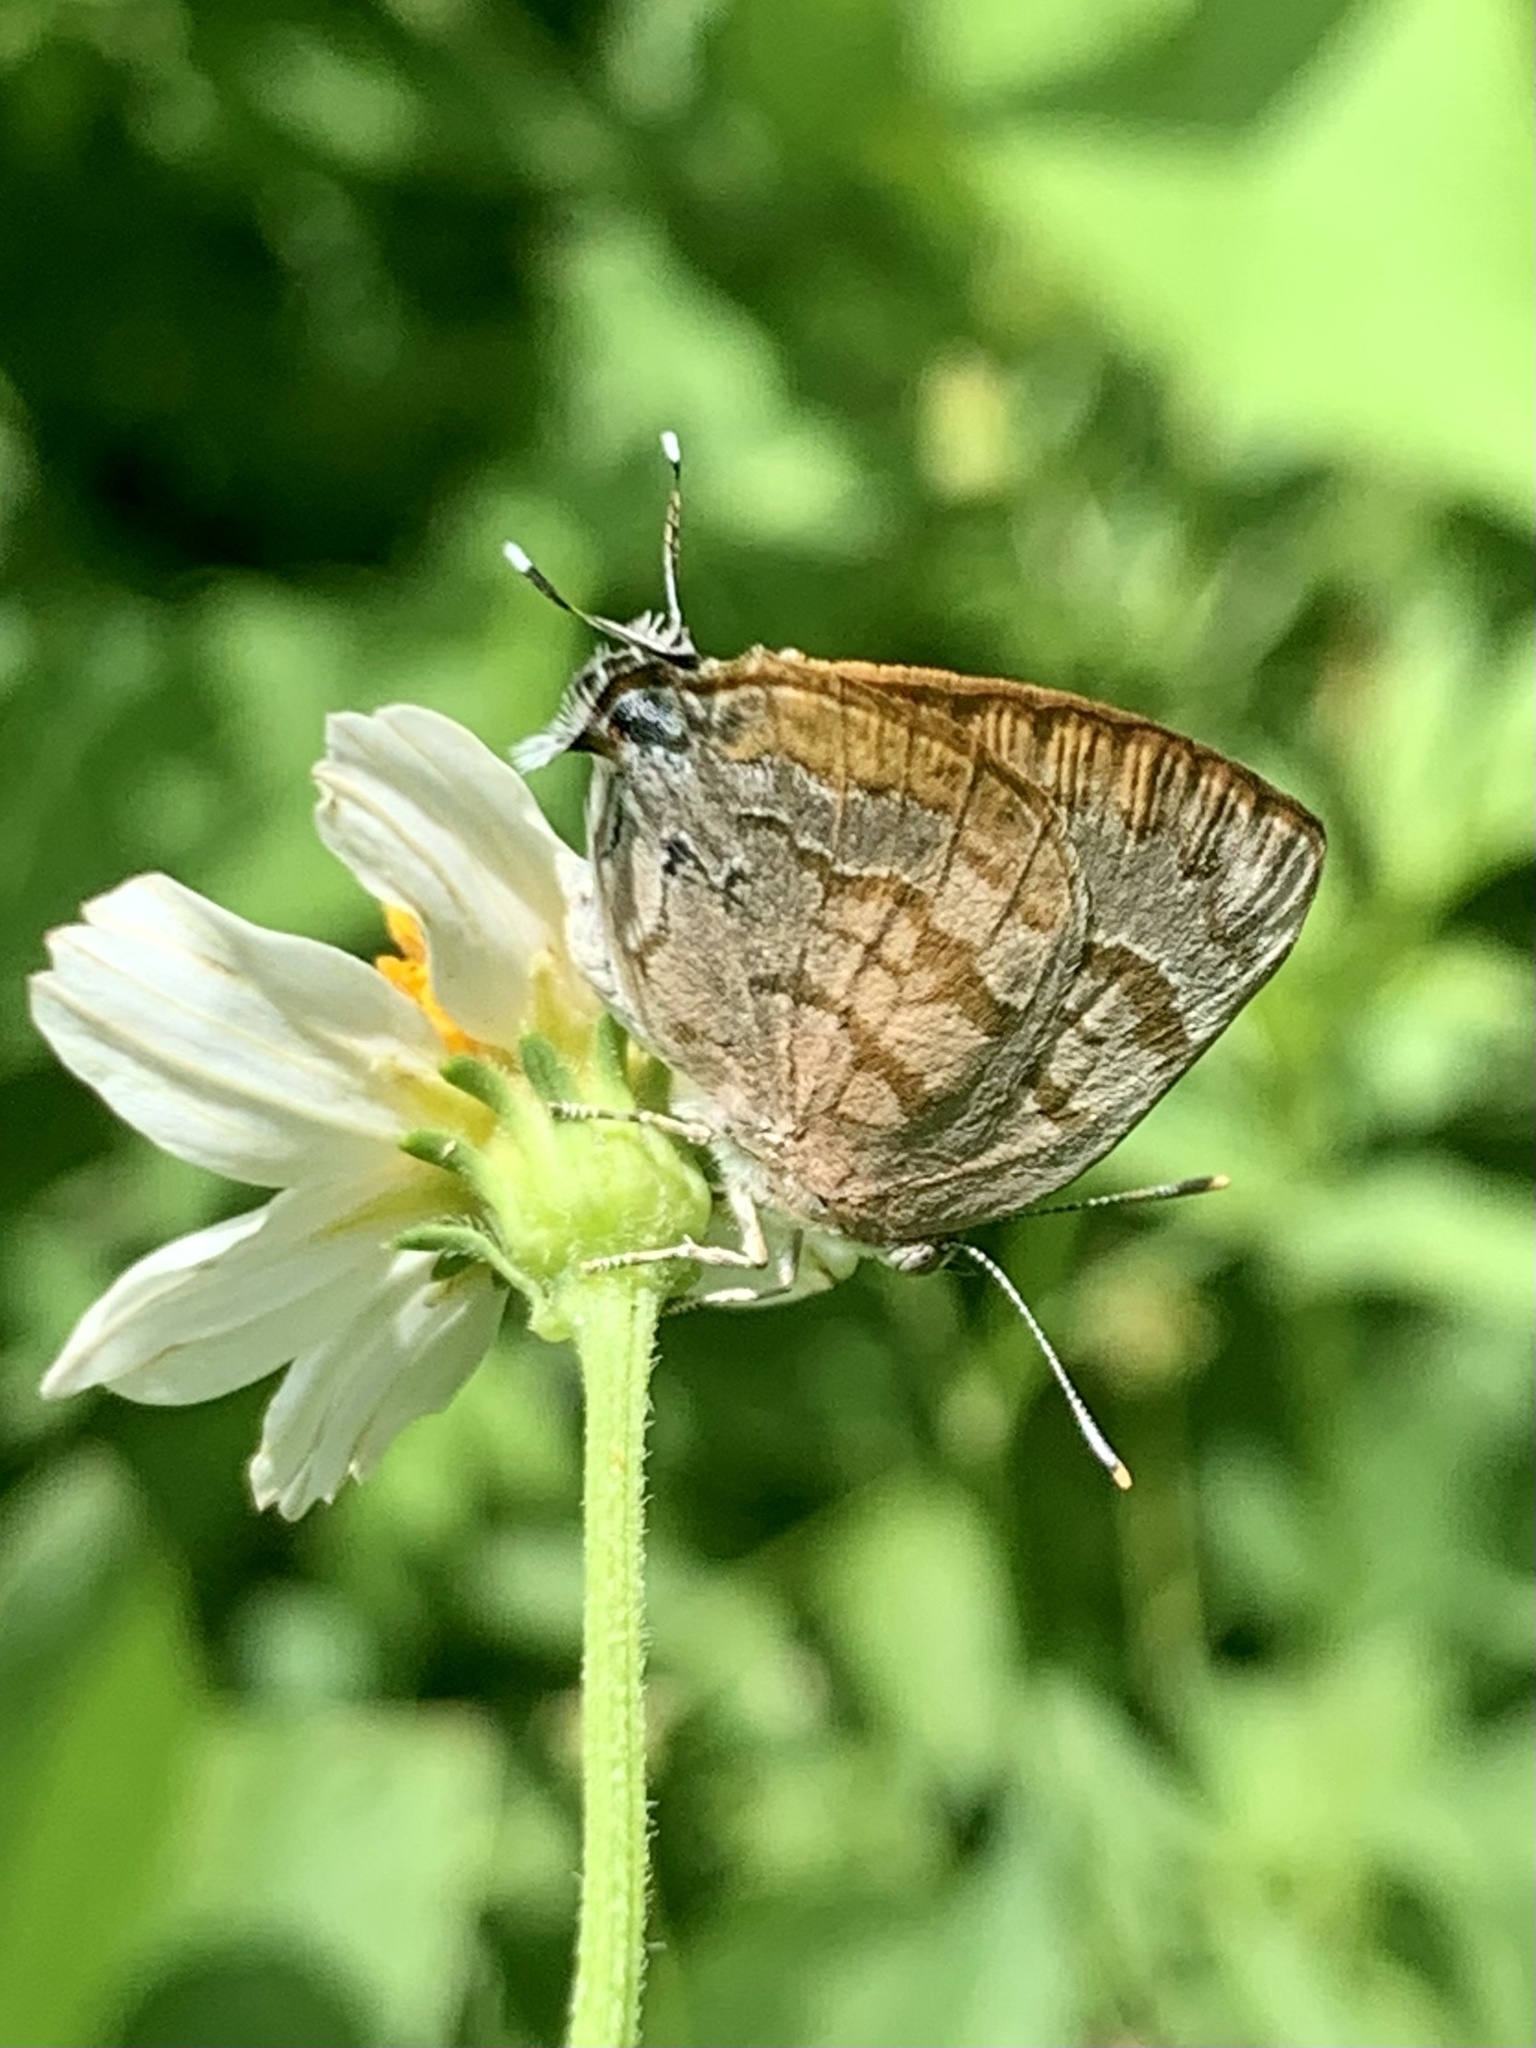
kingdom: Animalia
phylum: Arthropoda
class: Insecta
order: Lepidoptera
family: Lycaenidae
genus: Rekoa
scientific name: Rekoa palegon
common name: Gold-bordered hairstreak
